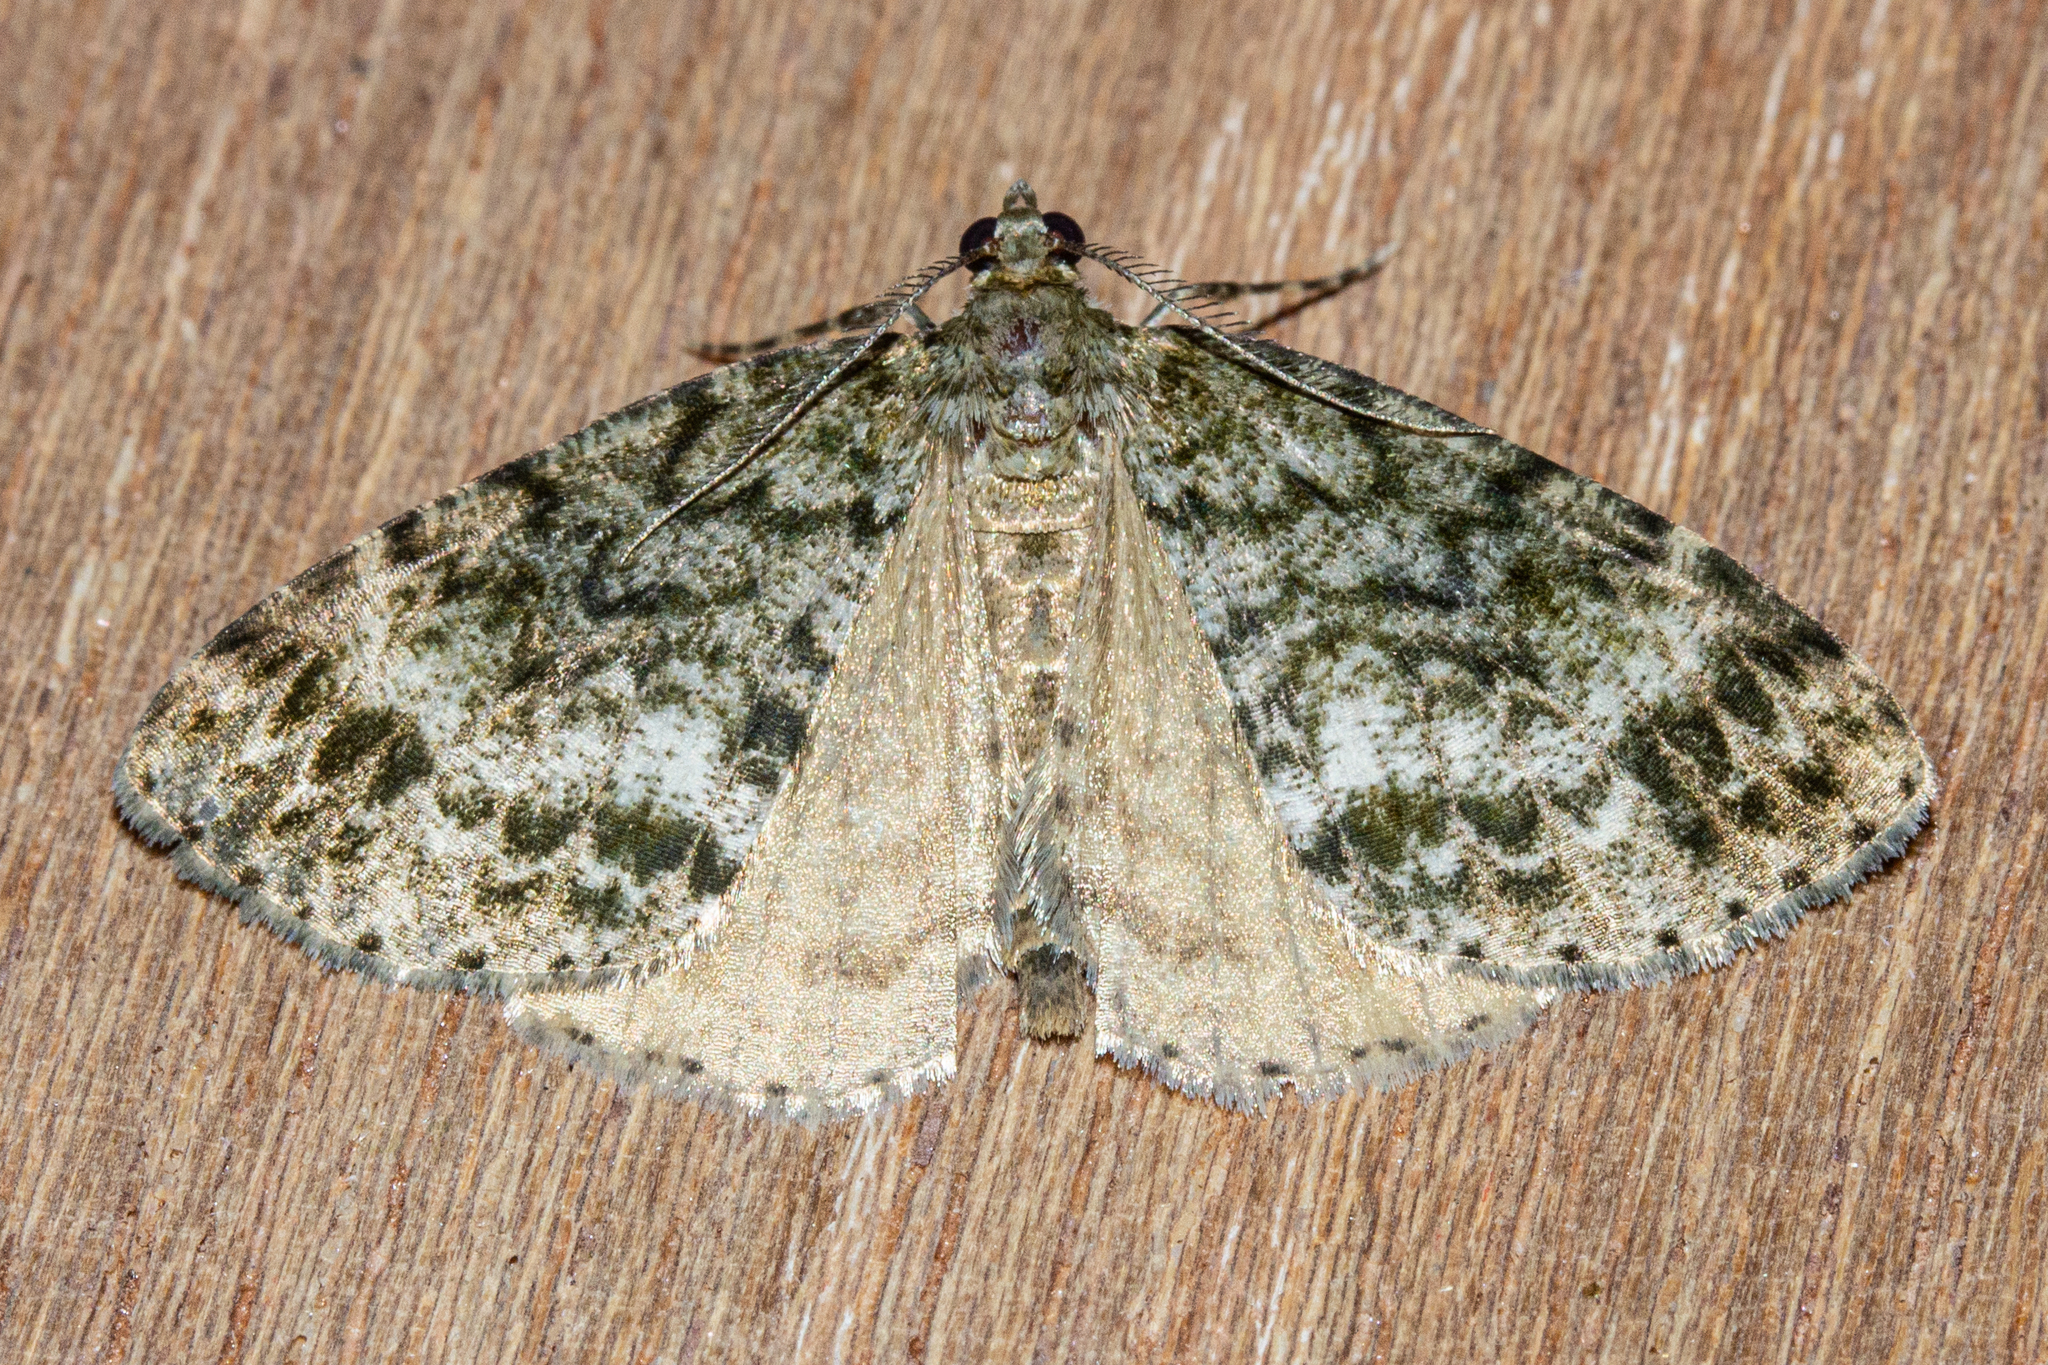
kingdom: Animalia
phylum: Arthropoda
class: Insecta
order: Lepidoptera
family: Geometridae
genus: Pseudocoremia
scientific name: Pseudocoremia indistincta
